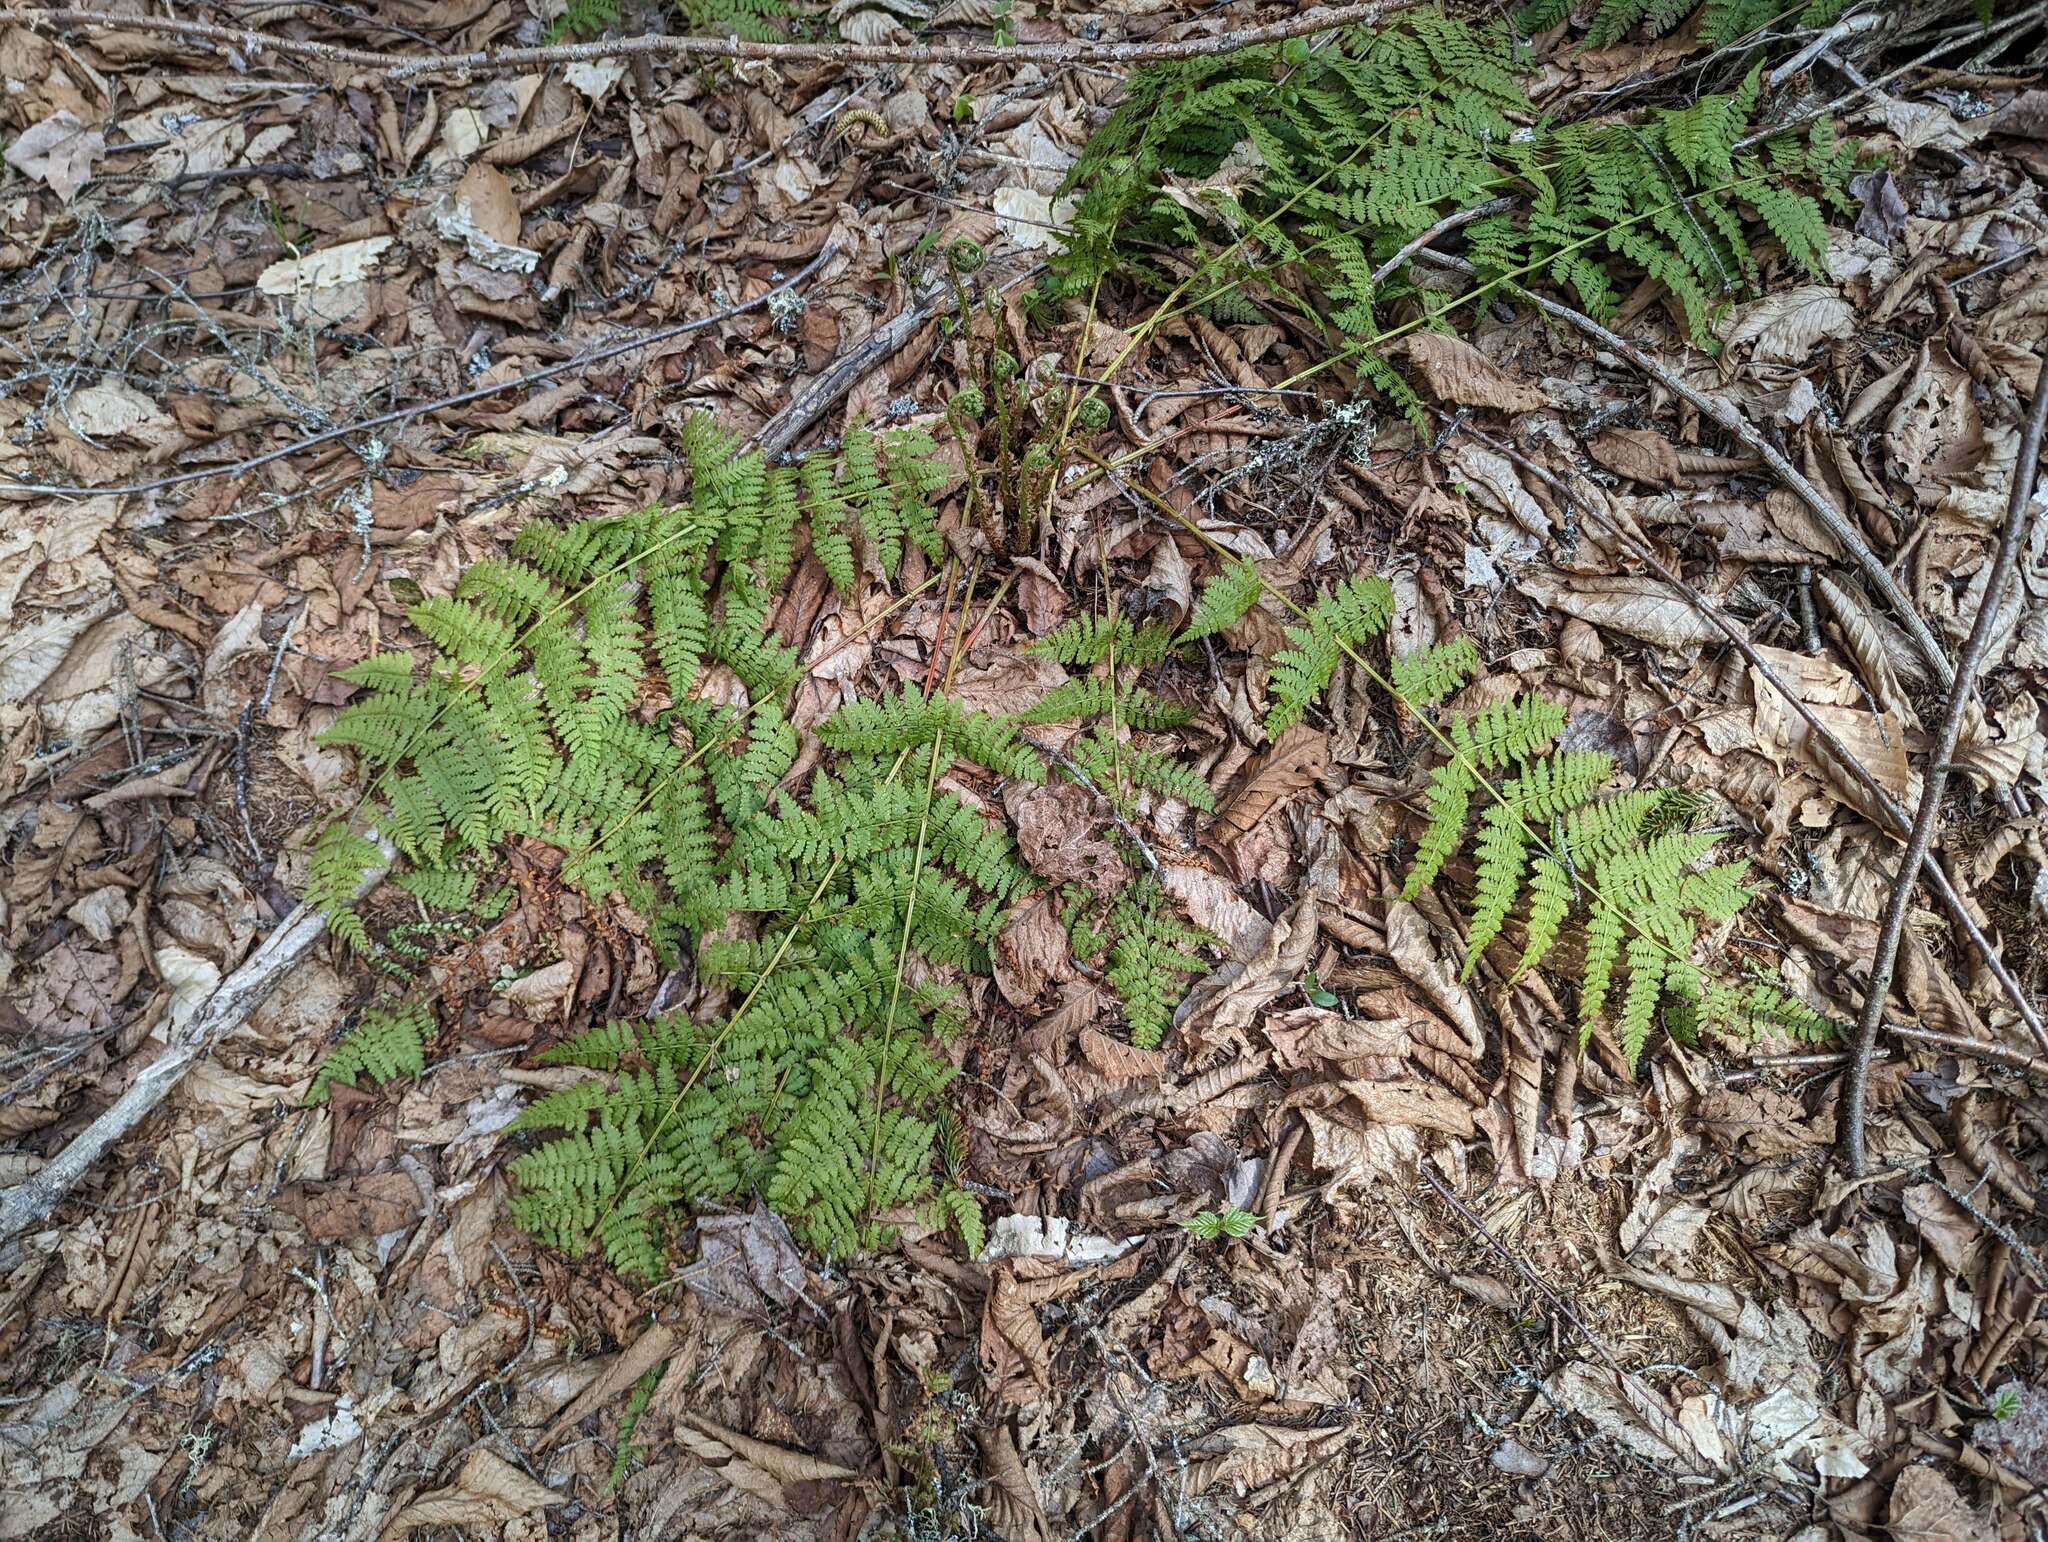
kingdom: Plantae
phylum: Tracheophyta
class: Polypodiopsida
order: Polypodiales
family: Dryopteridaceae
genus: Dryopteris
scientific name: Dryopteris intermedia
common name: Evergreen wood fern
